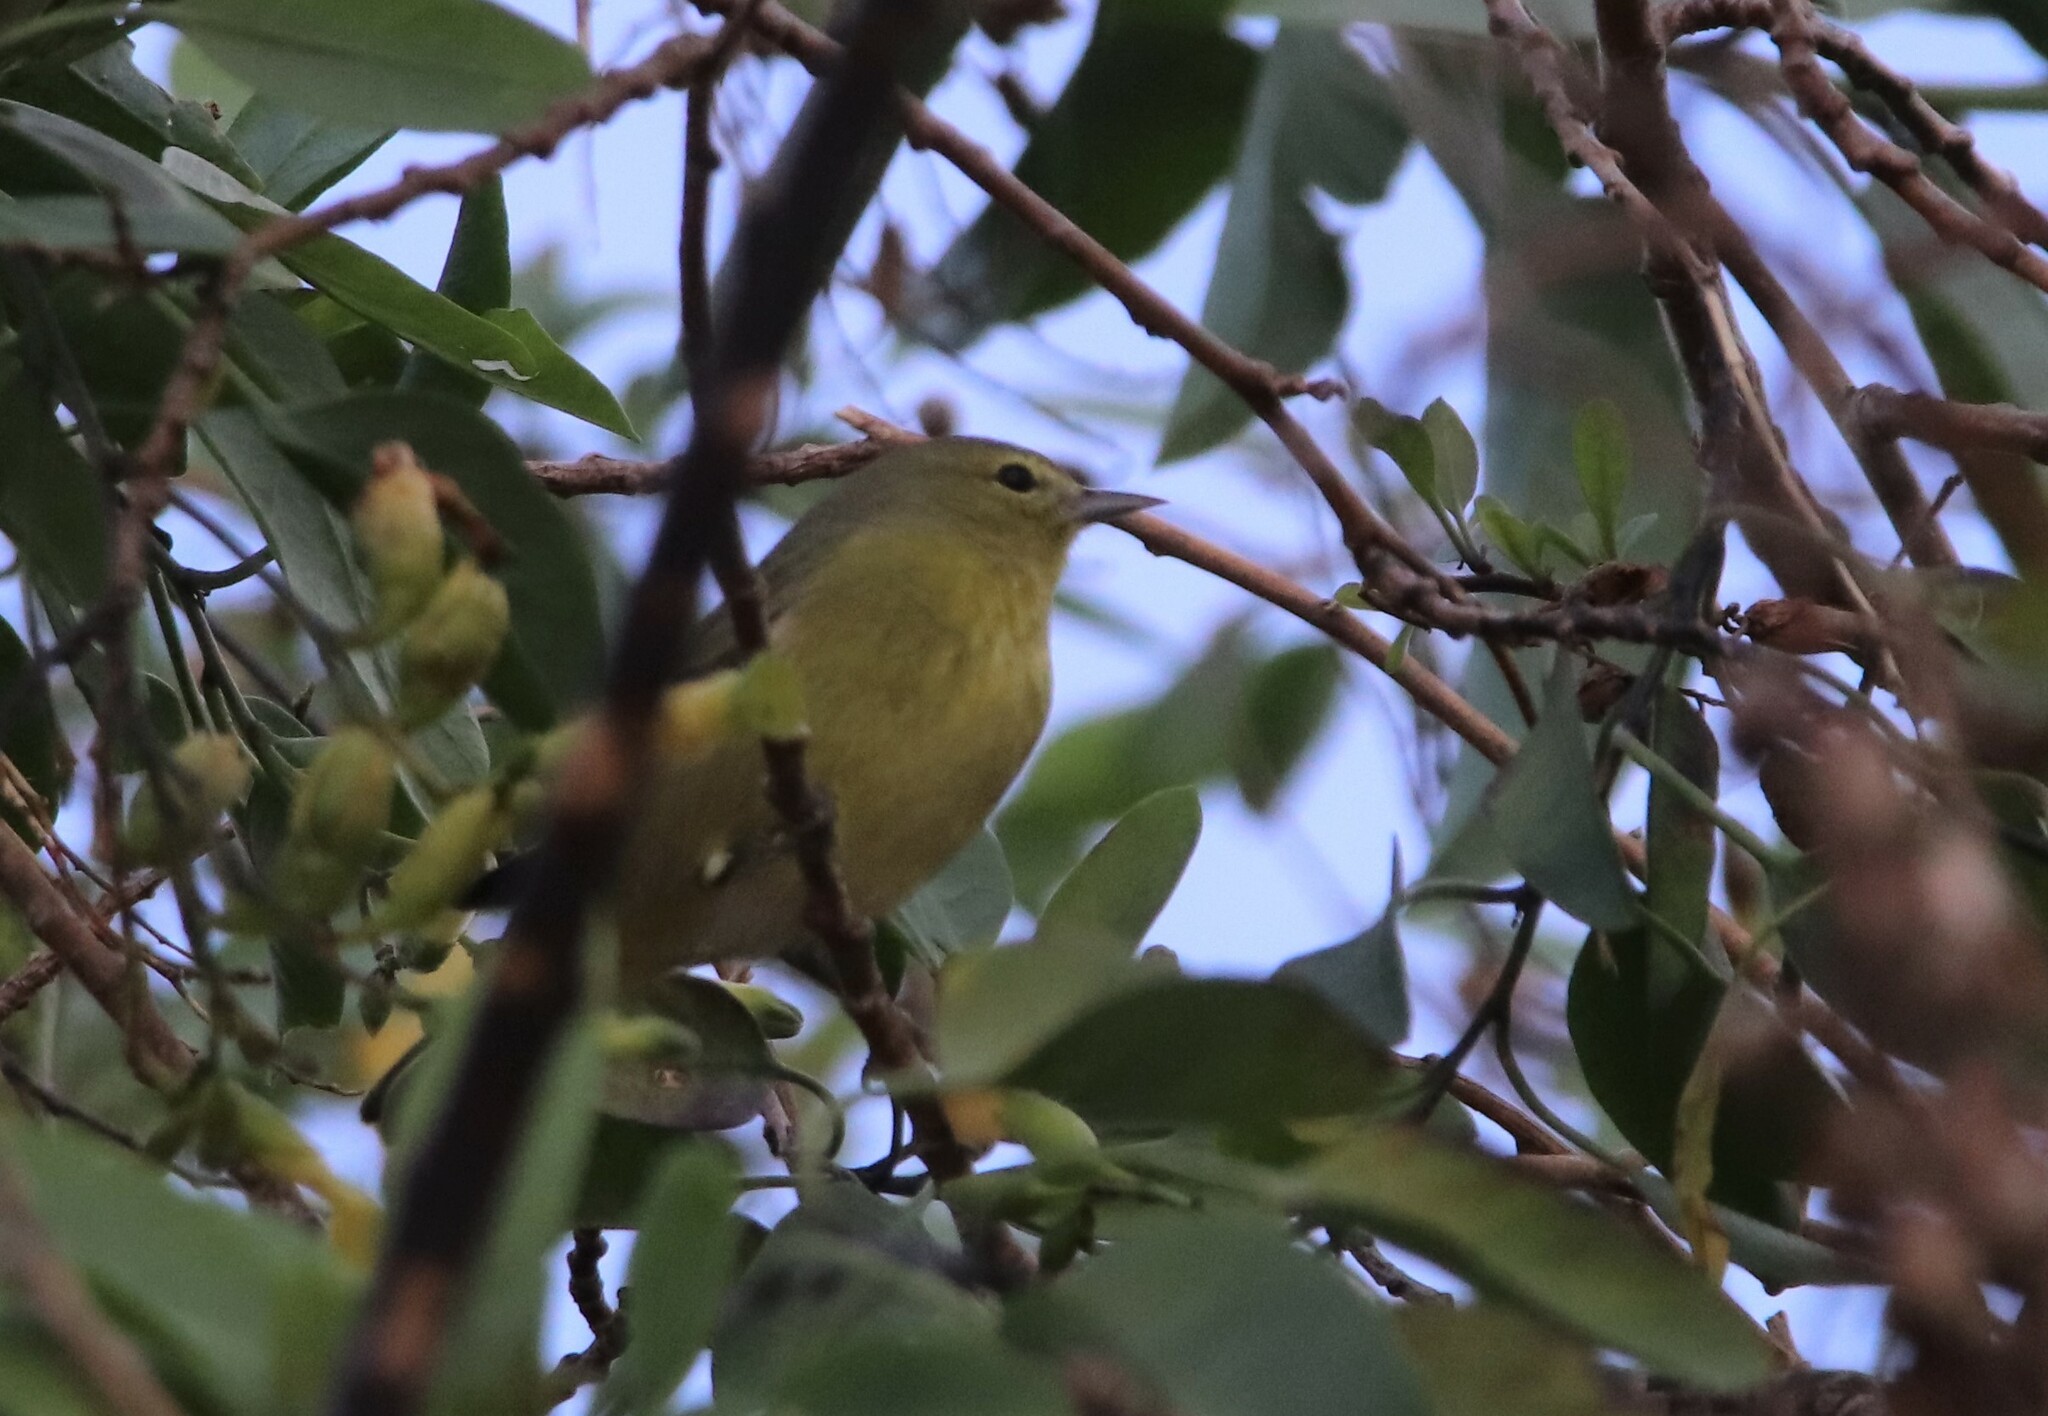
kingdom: Animalia
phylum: Chordata
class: Aves
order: Passeriformes
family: Parulidae
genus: Leiothlypis
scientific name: Leiothlypis celata
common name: Orange-crowned warbler
